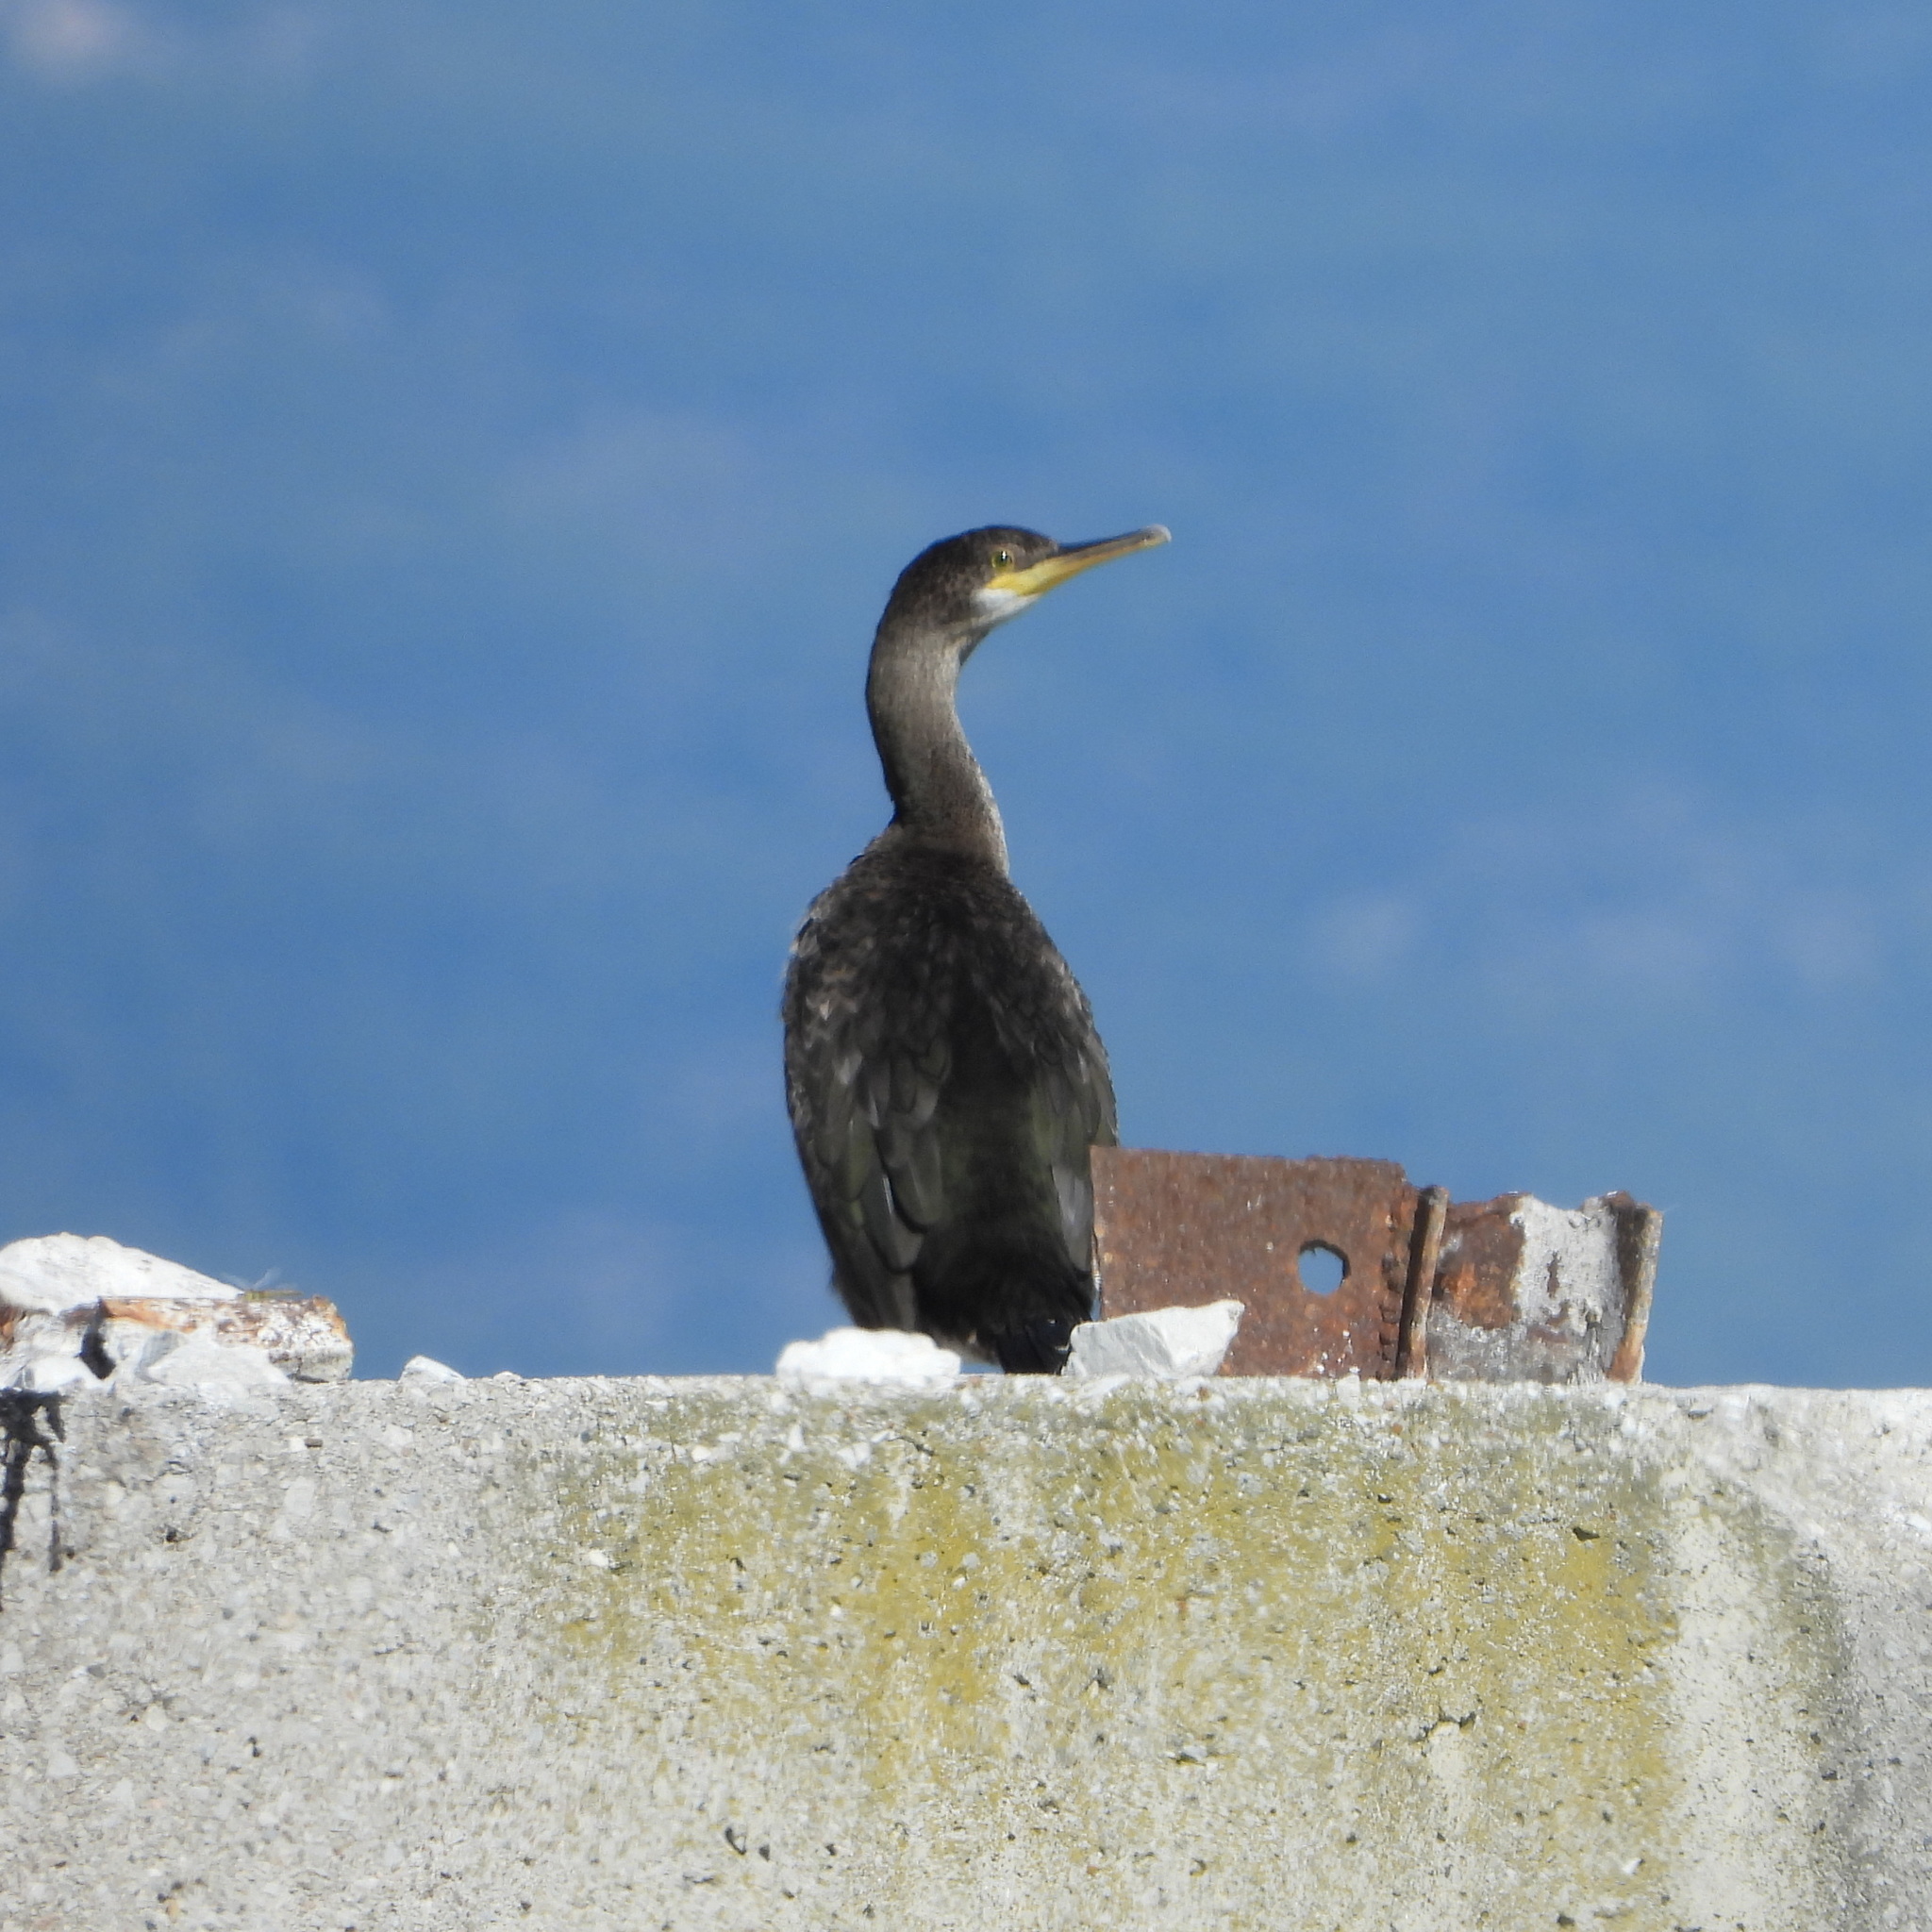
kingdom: Animalia
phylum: Chordata
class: Aves
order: Suliformes
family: Phalacrocoracidae
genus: Phalacrocorax
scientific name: Phalacrocorax aristotelis
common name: European shag
